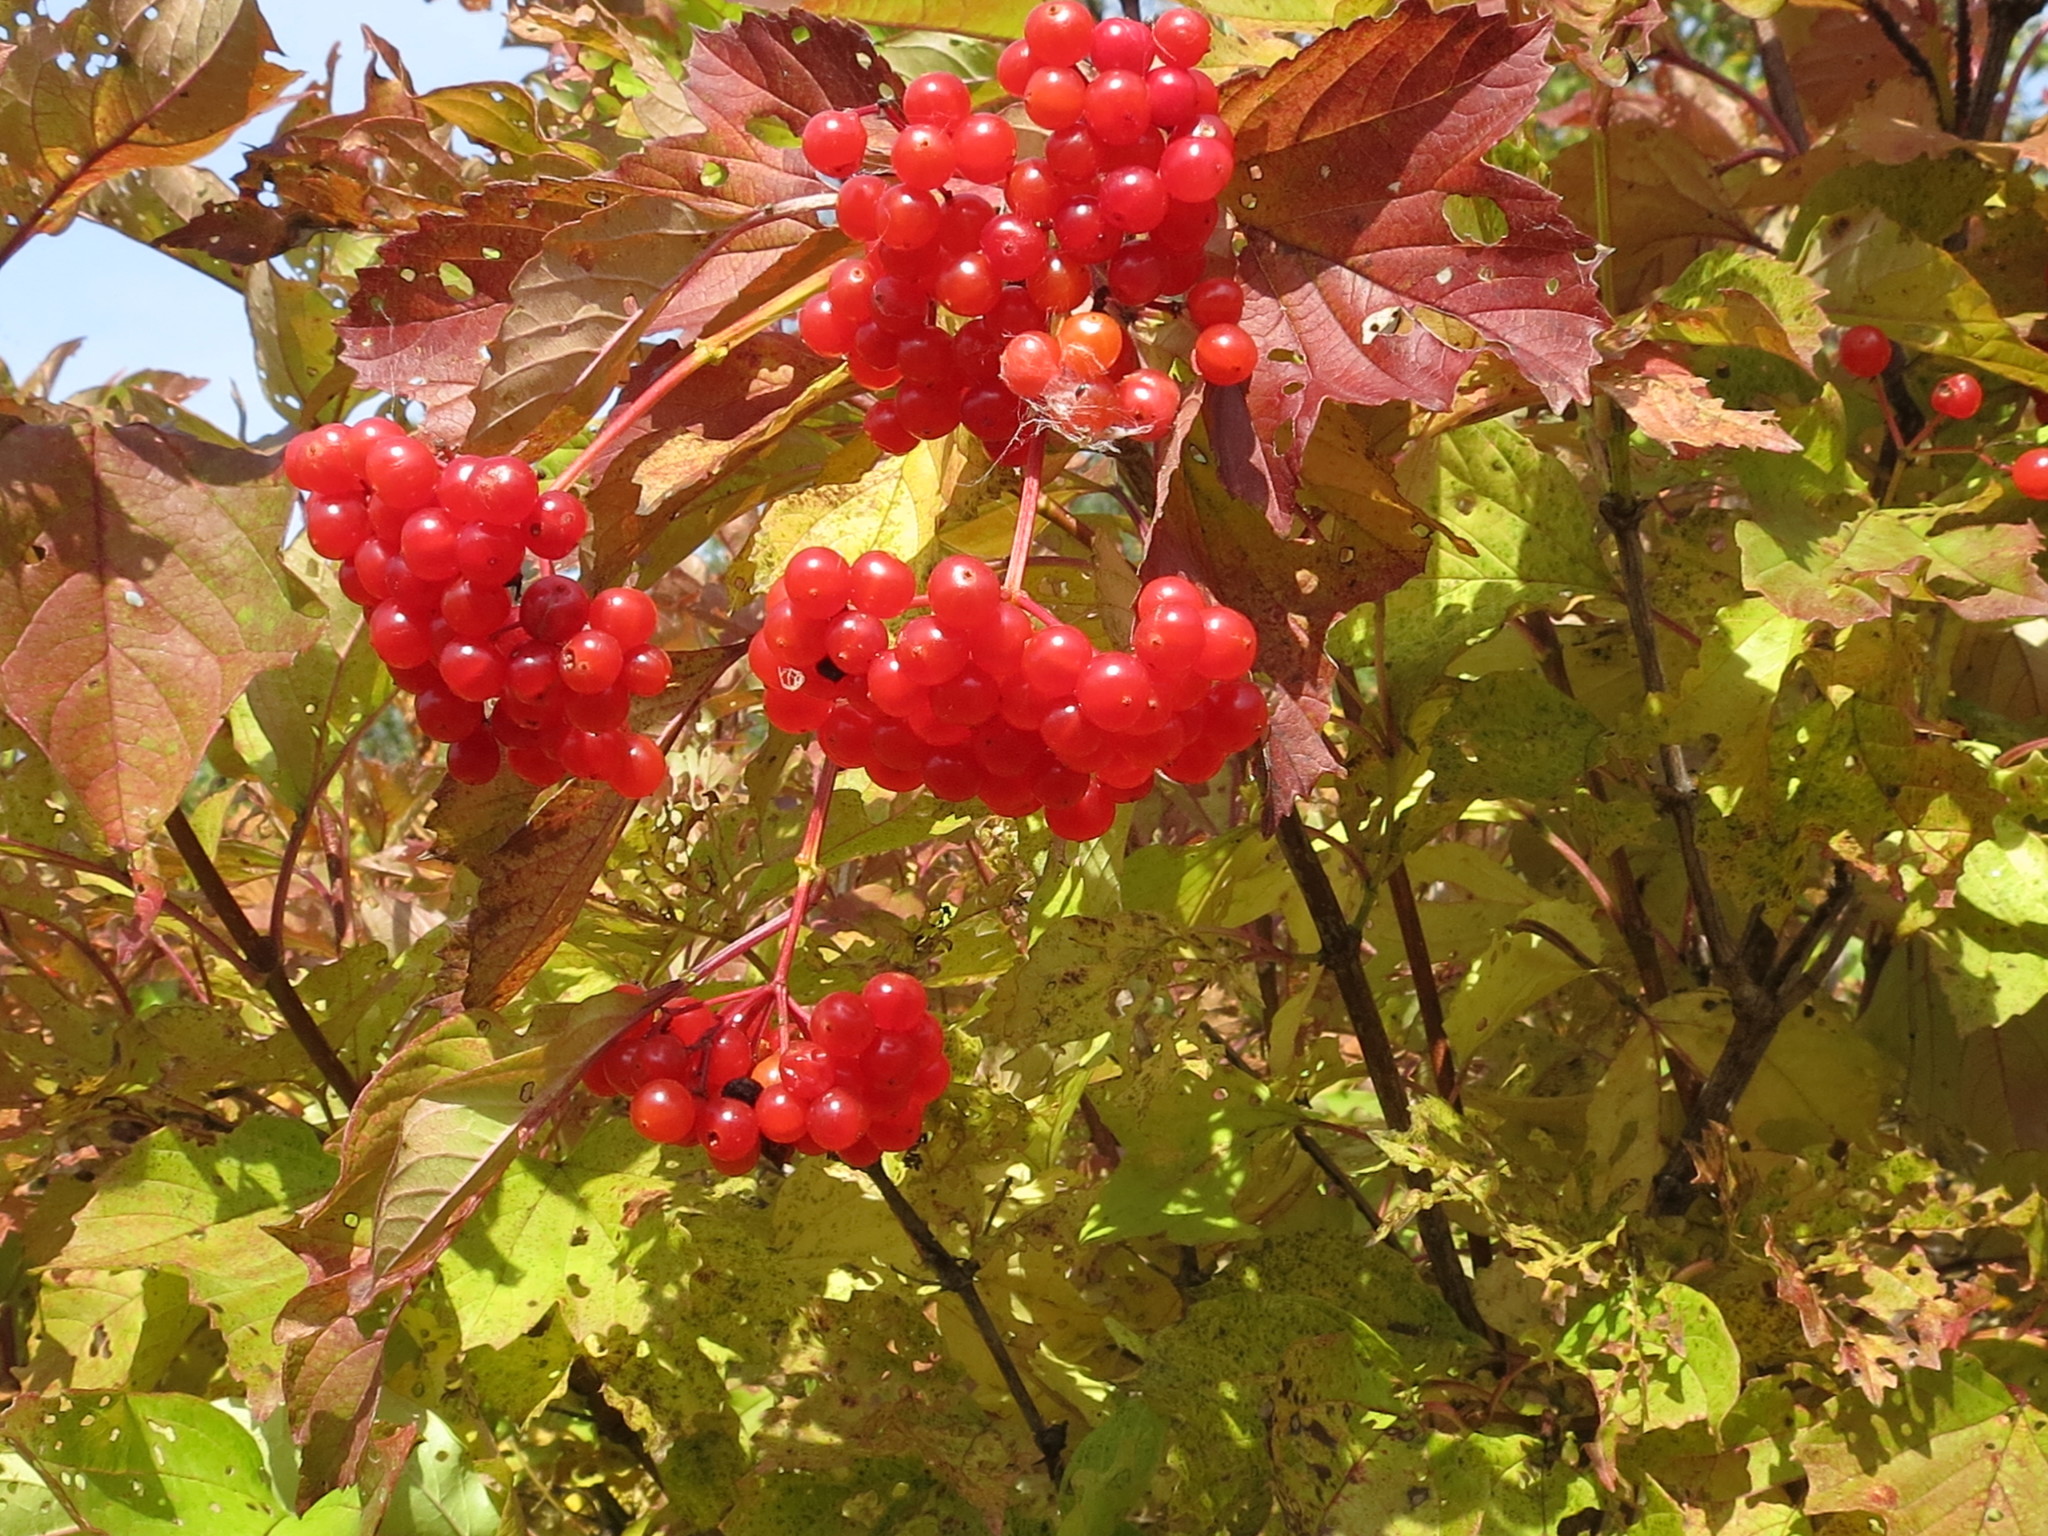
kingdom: Plantae
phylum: Tracheophyta
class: Magnoliopsida
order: Dipsacales
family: Viburnaceae
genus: Viburnum
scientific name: Viburnum sargentii
